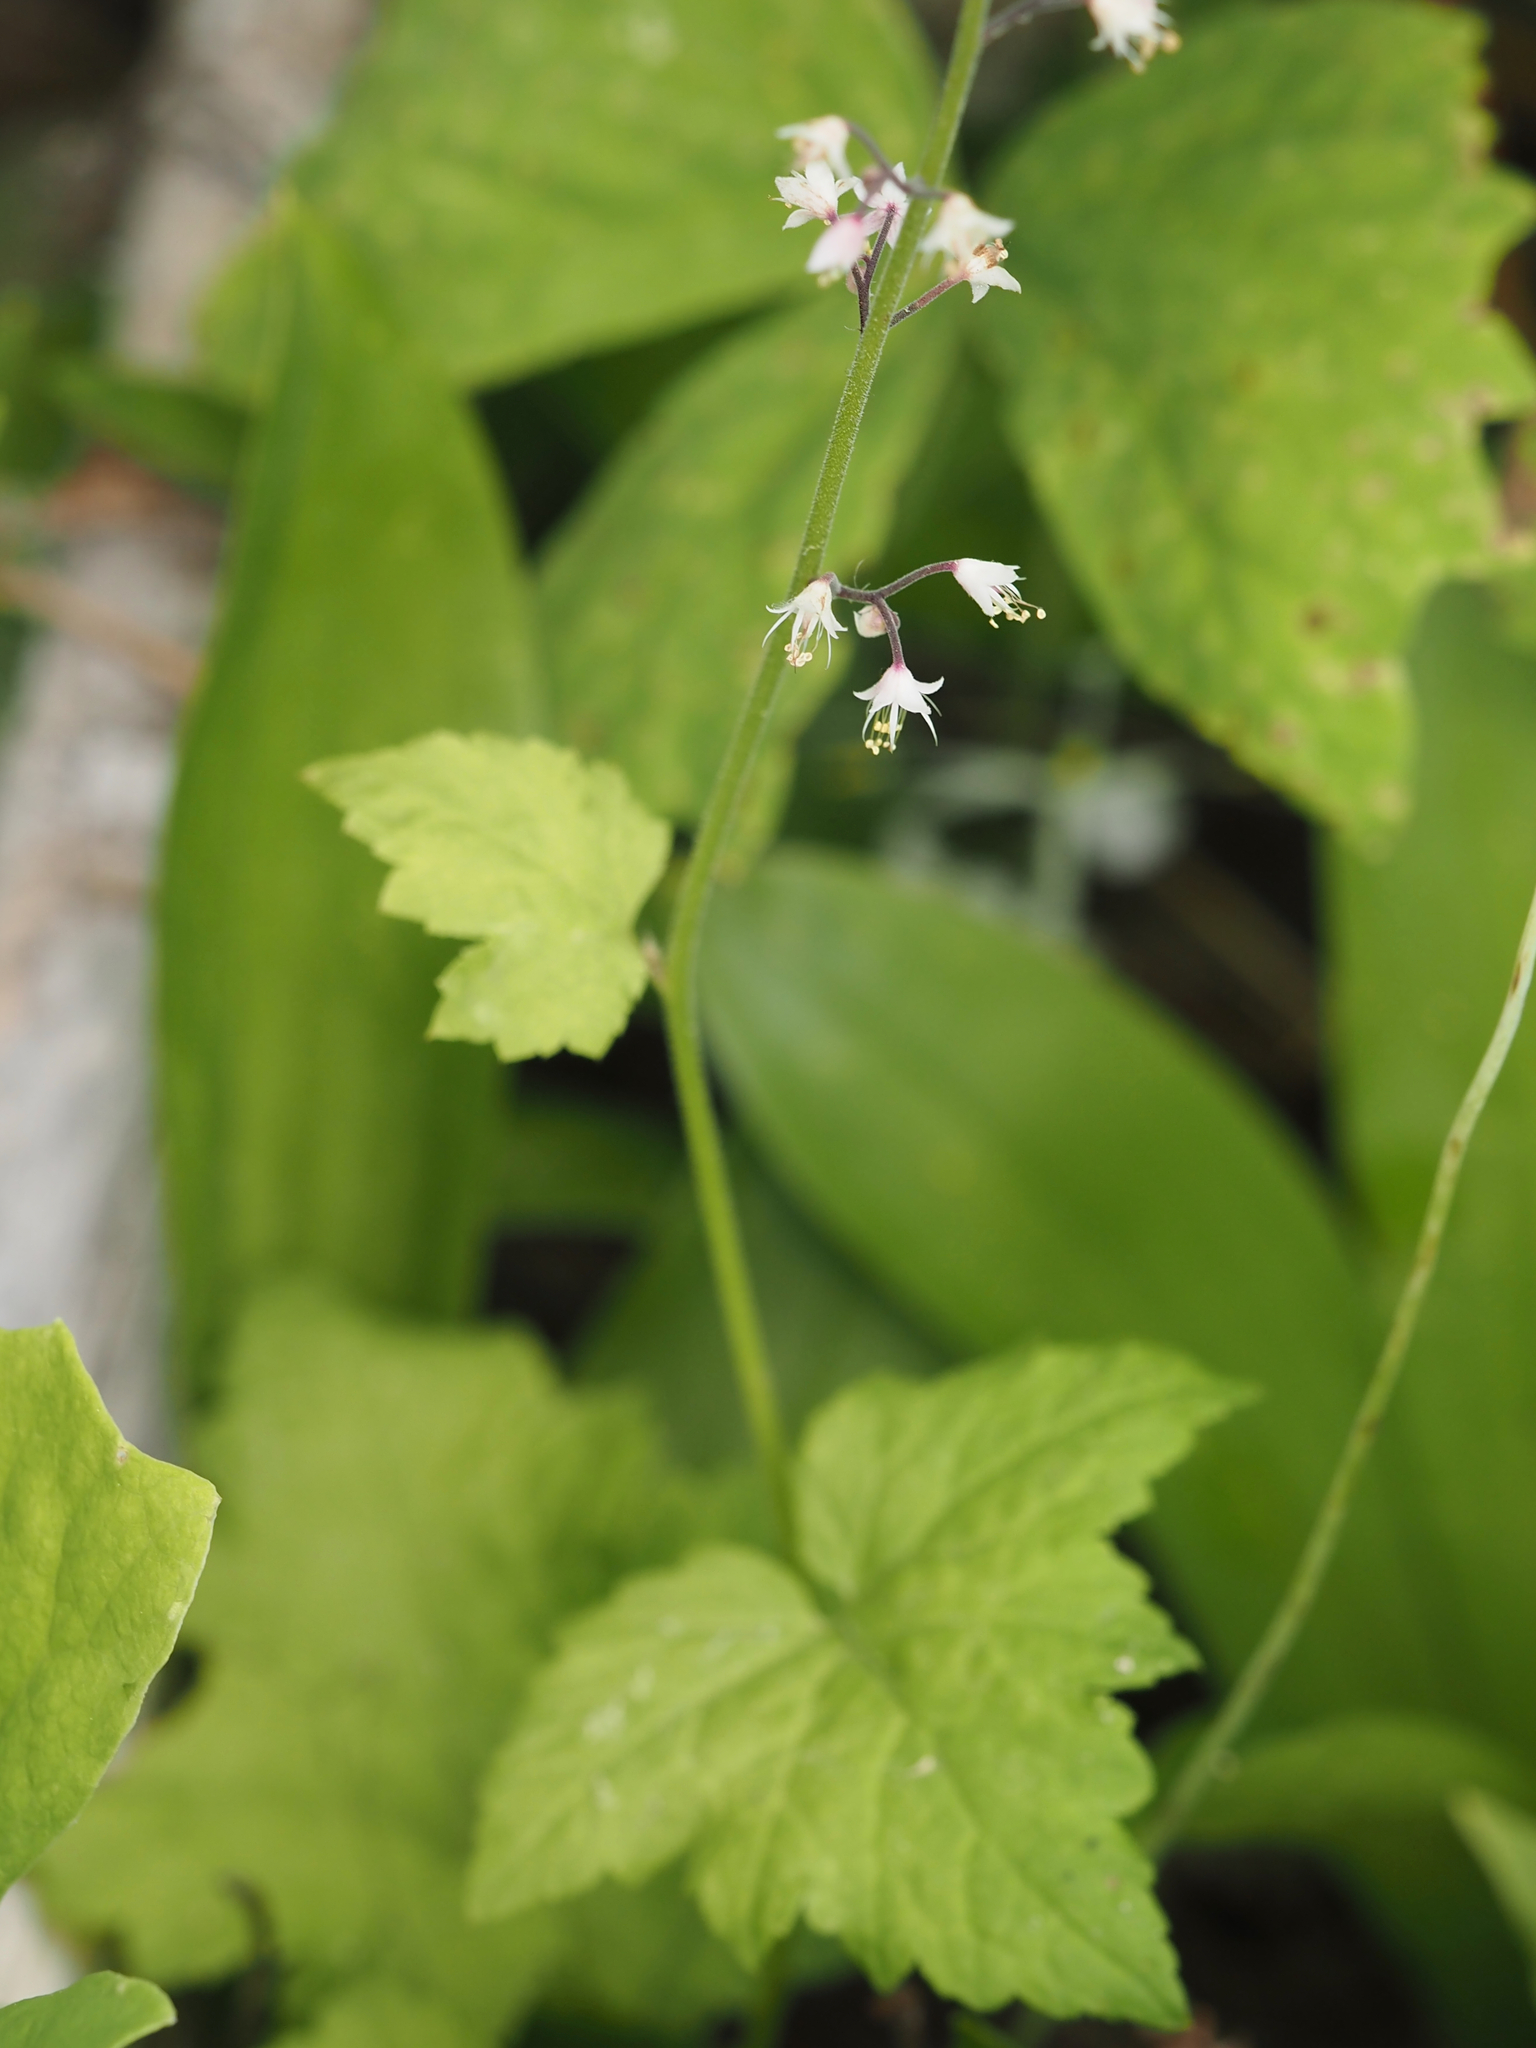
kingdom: Plantae
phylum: Tracheophyta
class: Magnoliopsida
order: Saxifragales
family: Saxifragaceae
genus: Tiarella
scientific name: Tiarella trifoliata
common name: Sugar-scoop
